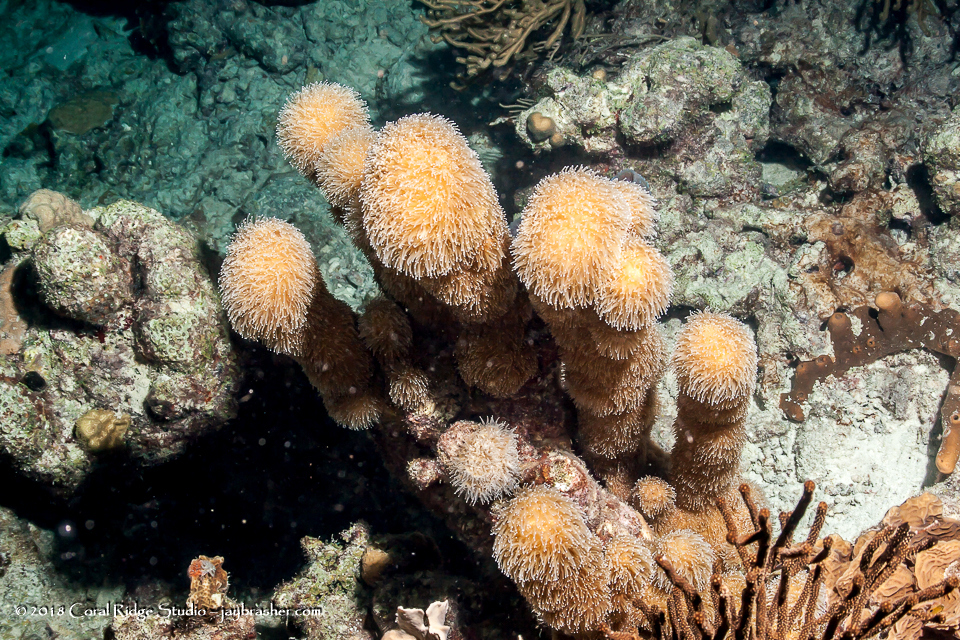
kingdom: Animalia
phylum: Cnidaria
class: Anthozoa
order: Scleractinia
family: Meandrinidae
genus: Dendrogyra
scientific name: Dendrogyra cylindrus
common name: Pillar coral
